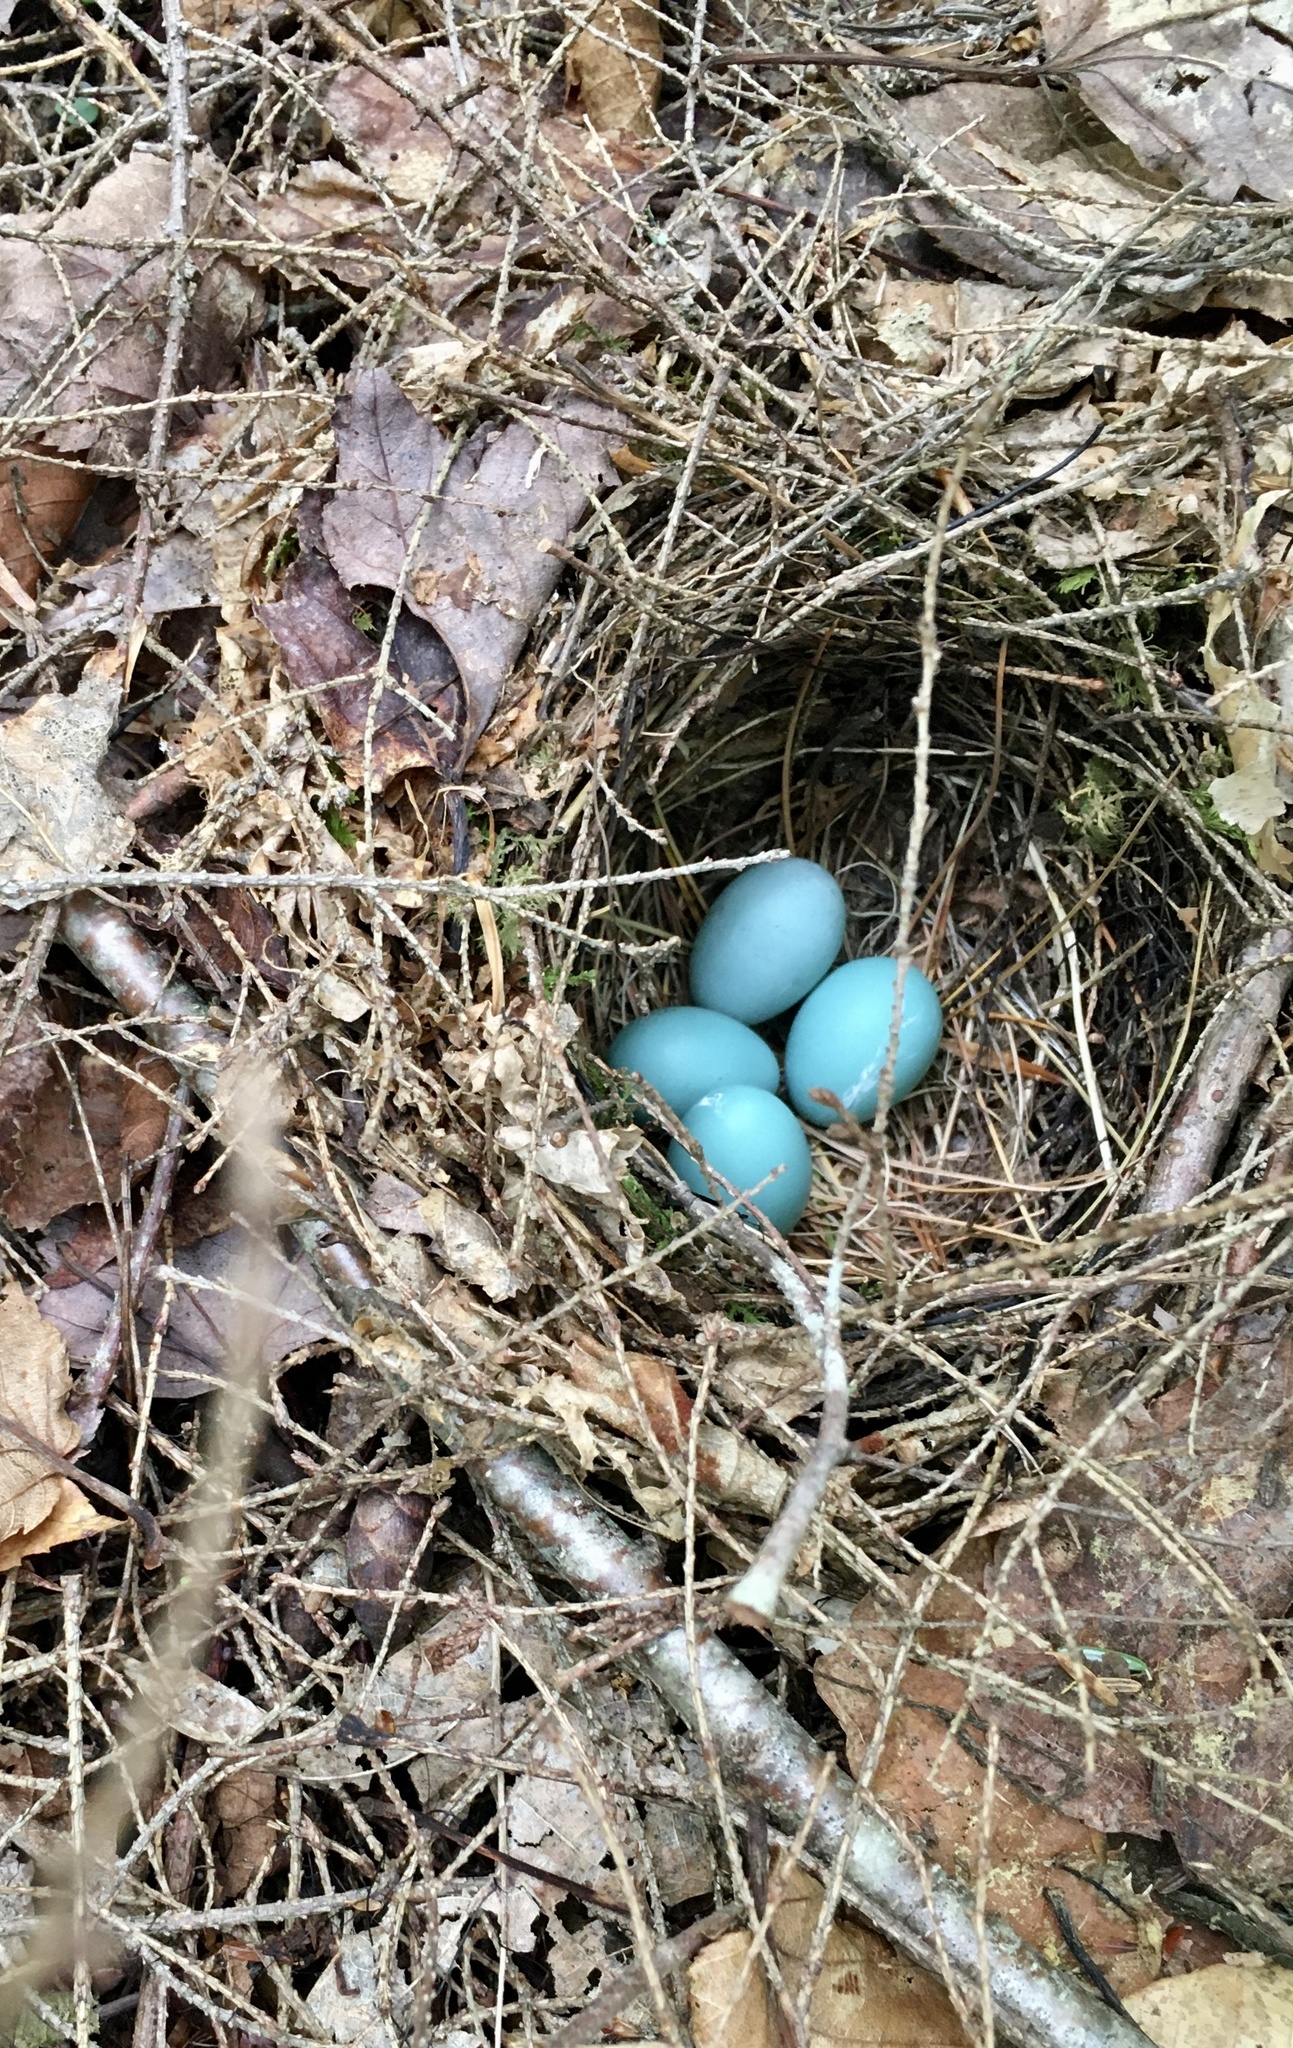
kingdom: Animalia
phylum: Chordata
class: Aves
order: Passeriformes
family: Turdidae
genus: Catharus
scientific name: Catharus guttatus
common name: Hermit thrush
